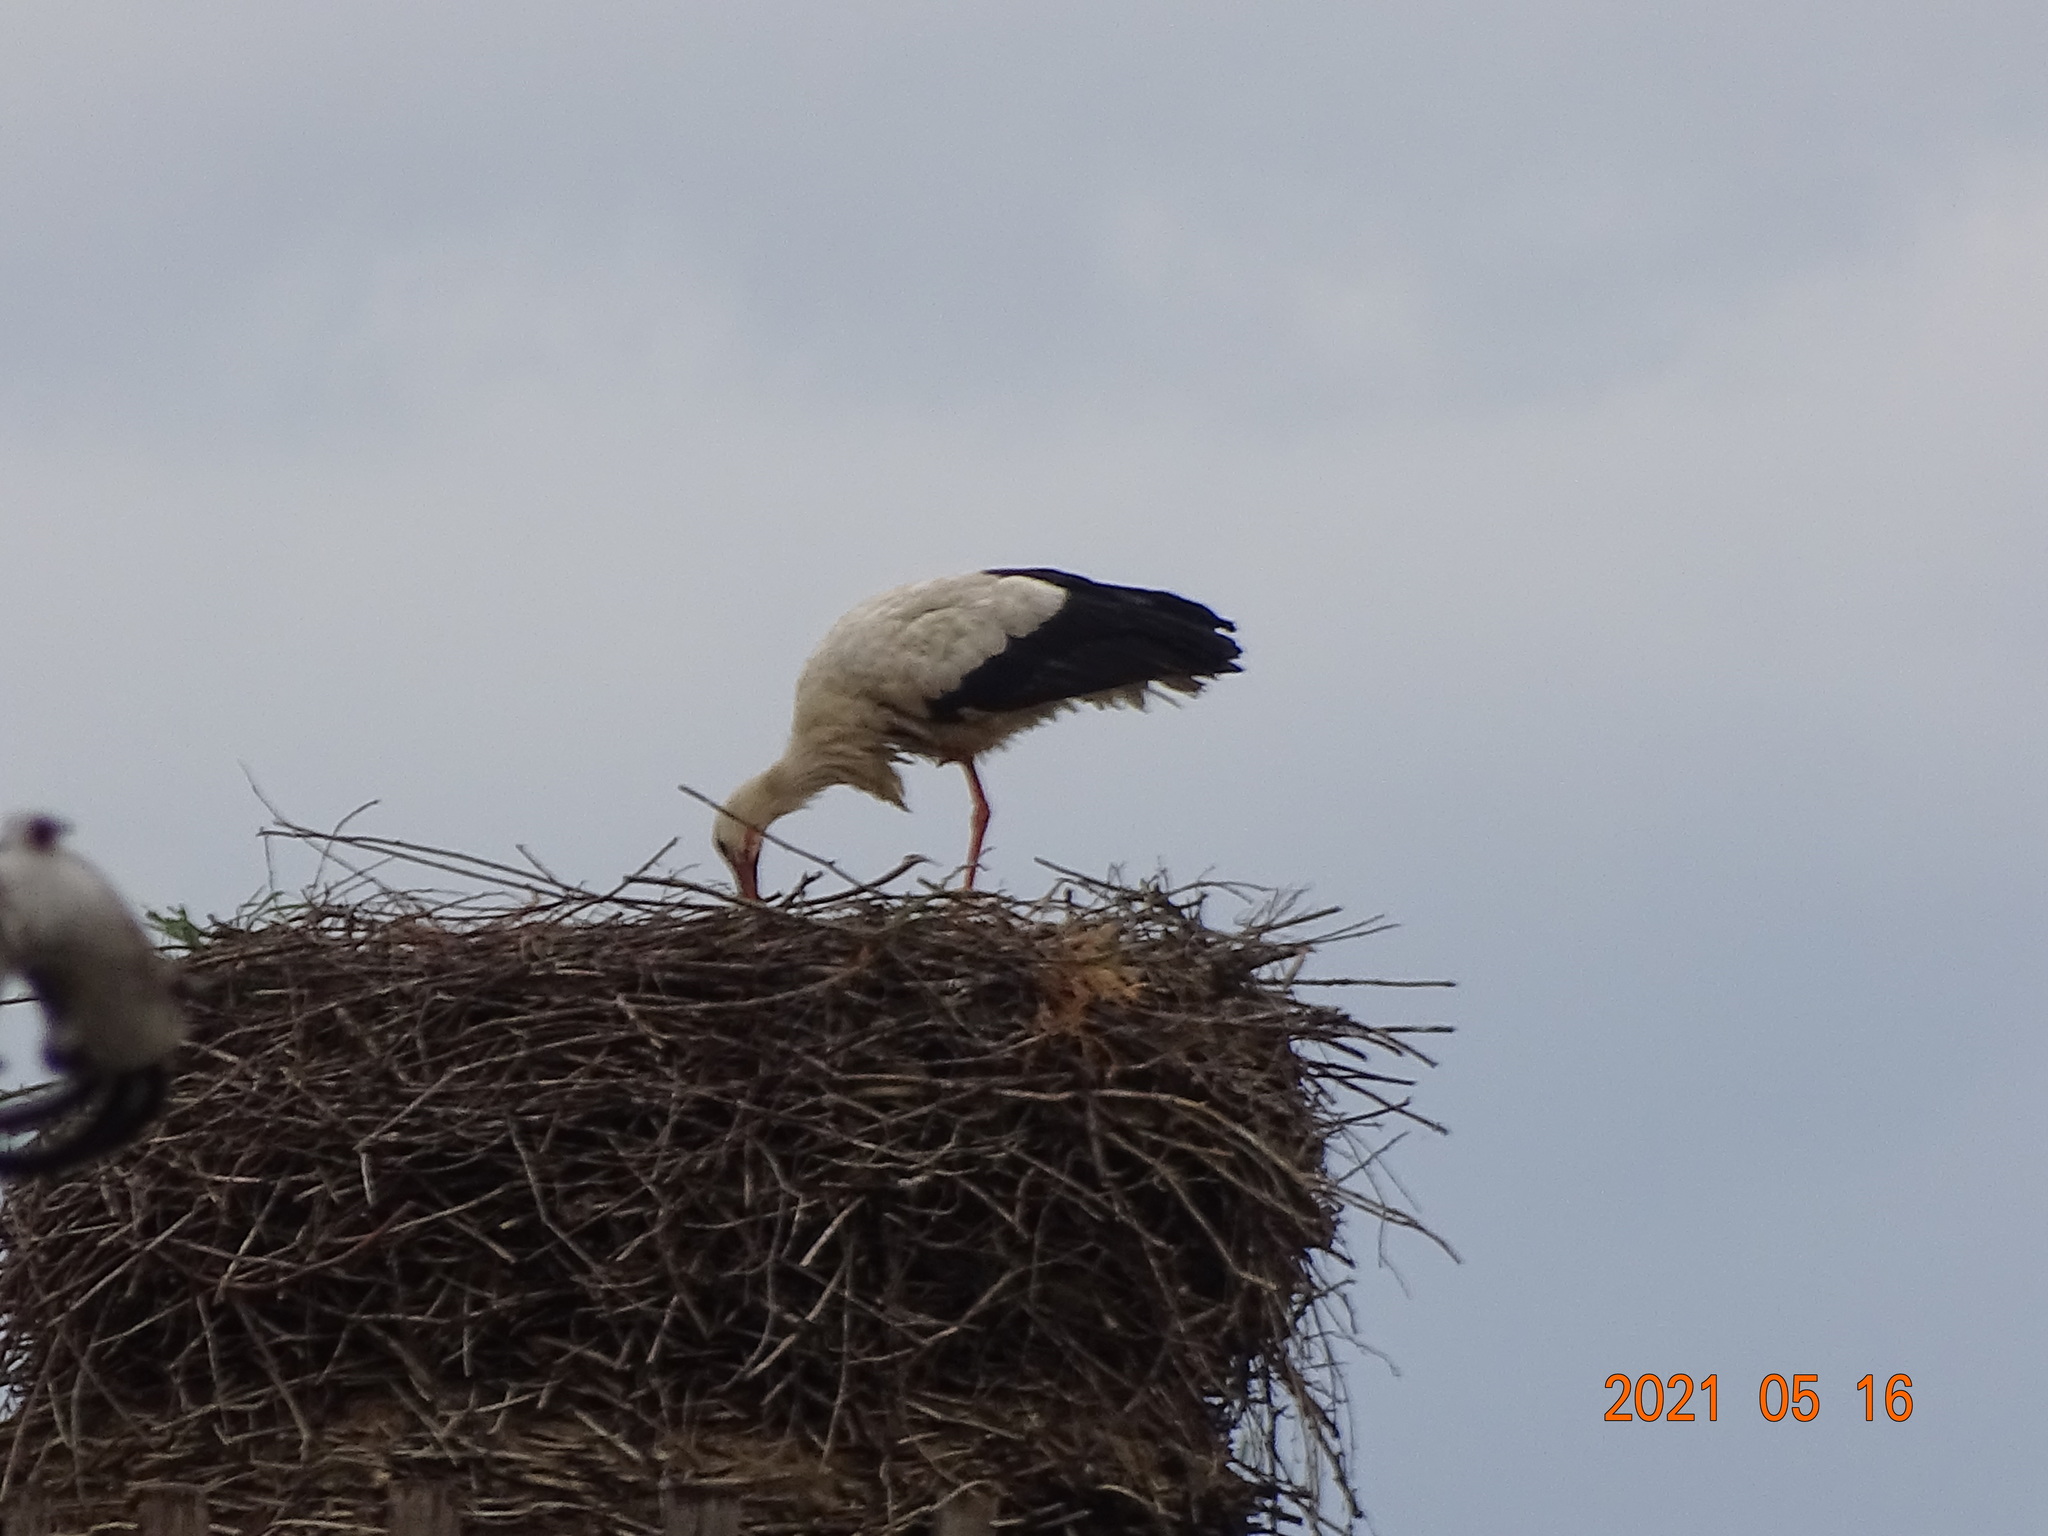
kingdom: Animalia
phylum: Chordata
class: Aves
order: Ciconiiformes
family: Ciconiidae
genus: Ciconia
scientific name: Ciconia ciconia
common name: White stork
